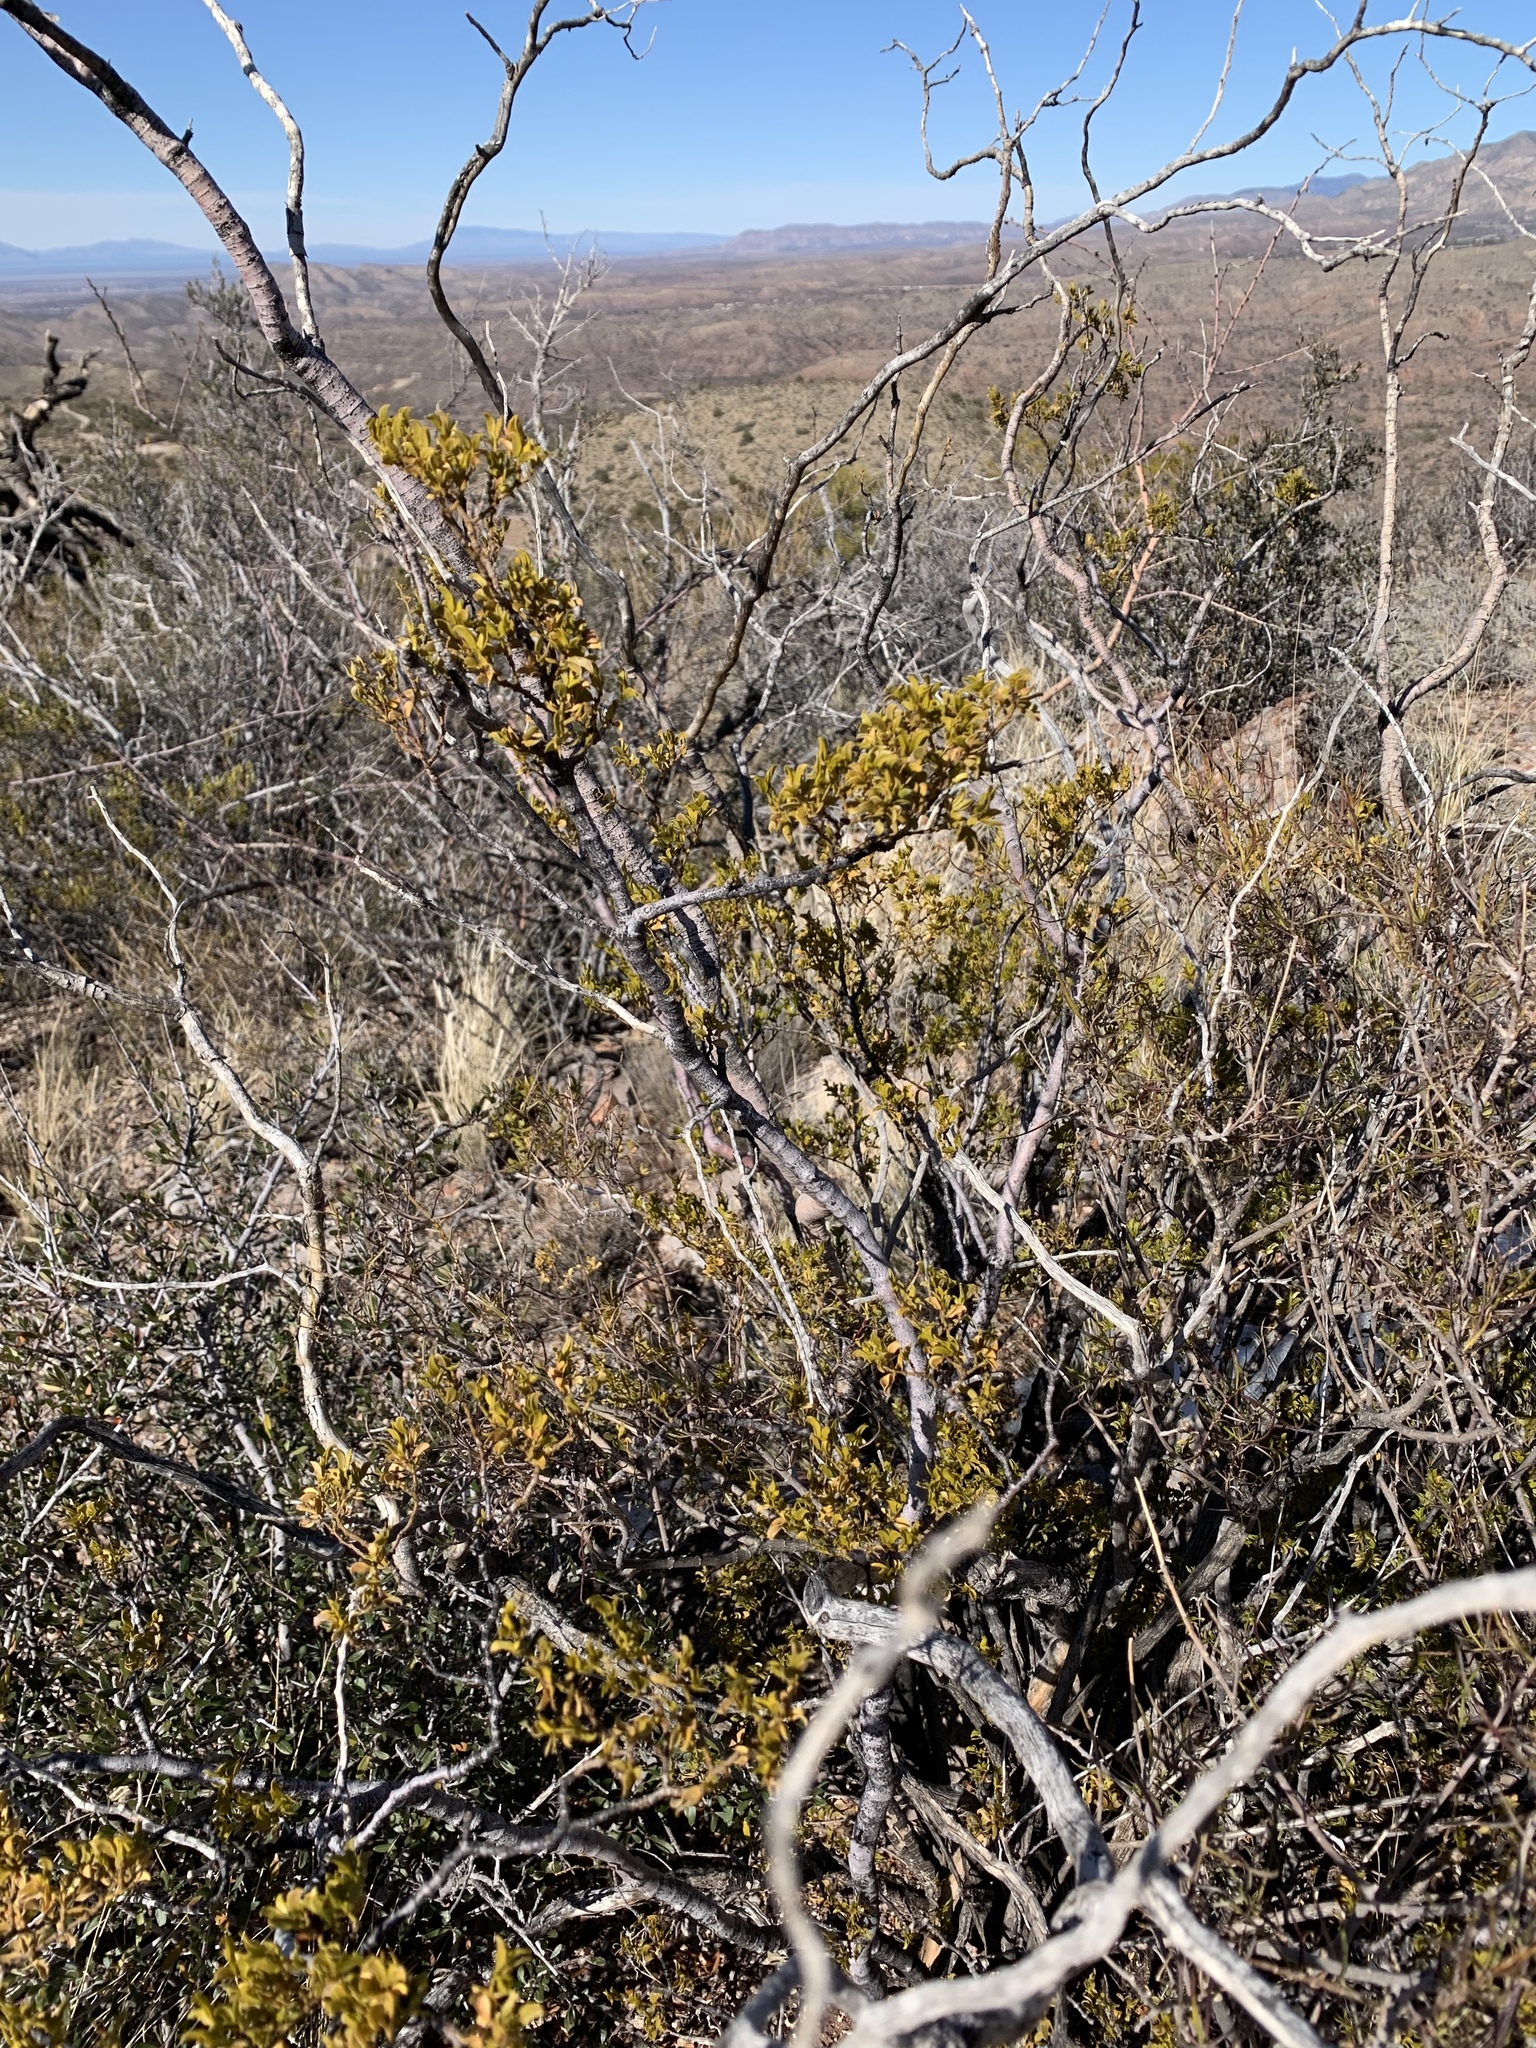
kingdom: Plantae
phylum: Tracheophyta
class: Magnoliopsida
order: Zygophyllales
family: Zygophyllaceae
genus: Larrea
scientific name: Larrea tridentata
